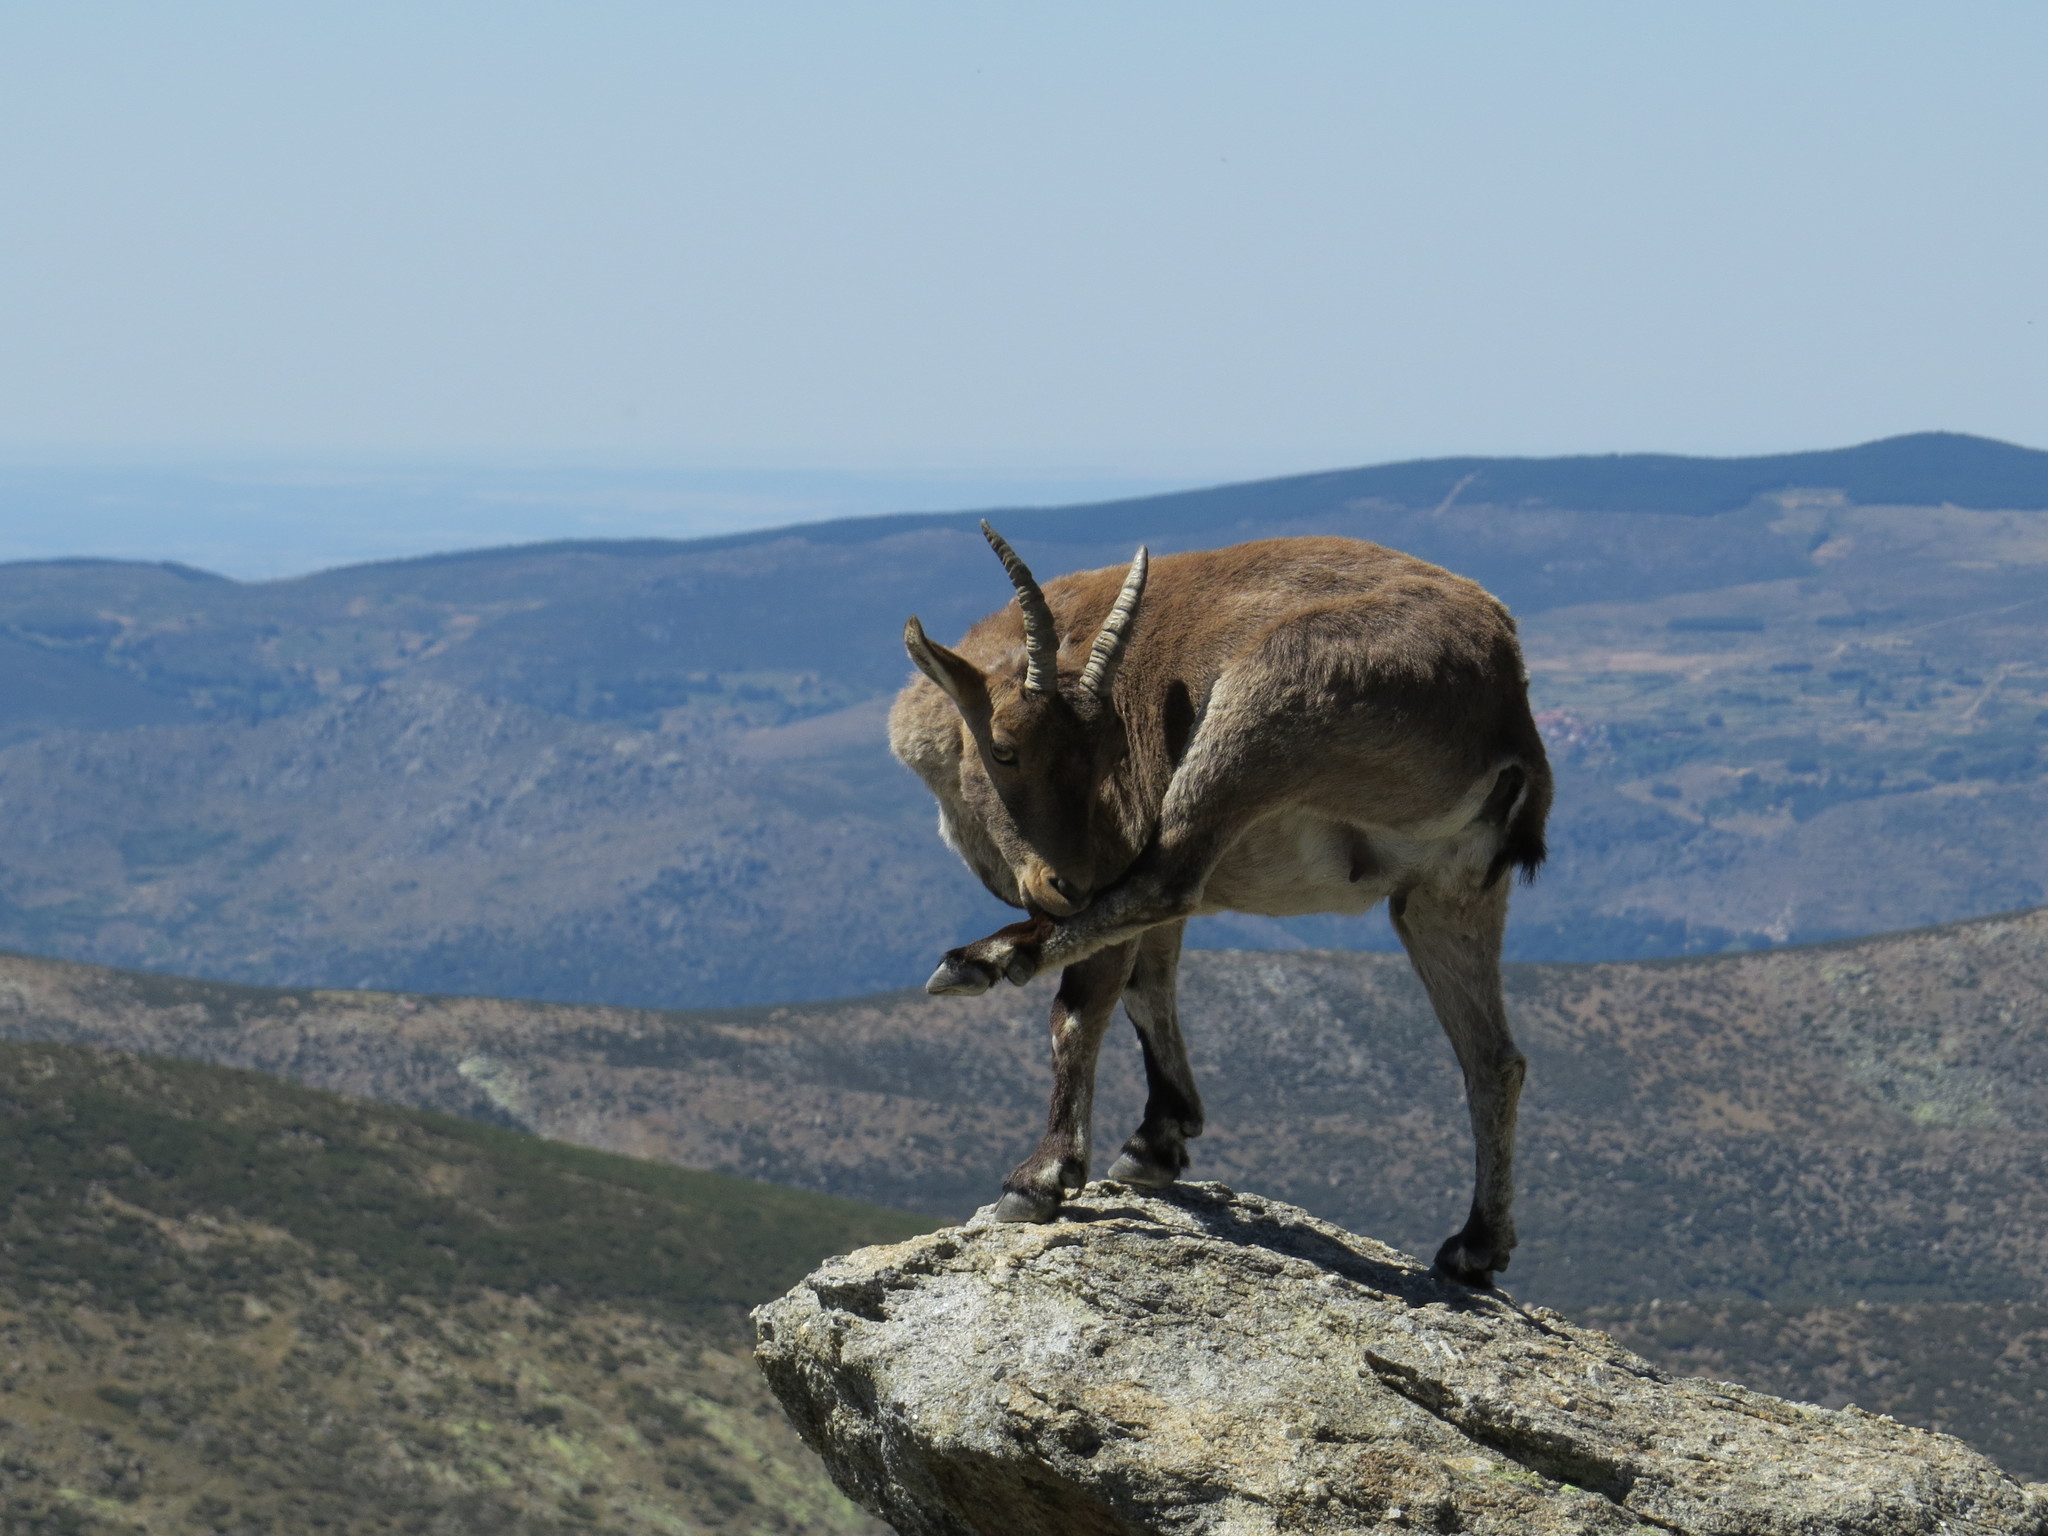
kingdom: Animalia
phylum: Chordata
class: Mammalia
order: Artiodactyla
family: Bovidae
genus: Capra
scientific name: Capra pyrenaica
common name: Spanish ibex
